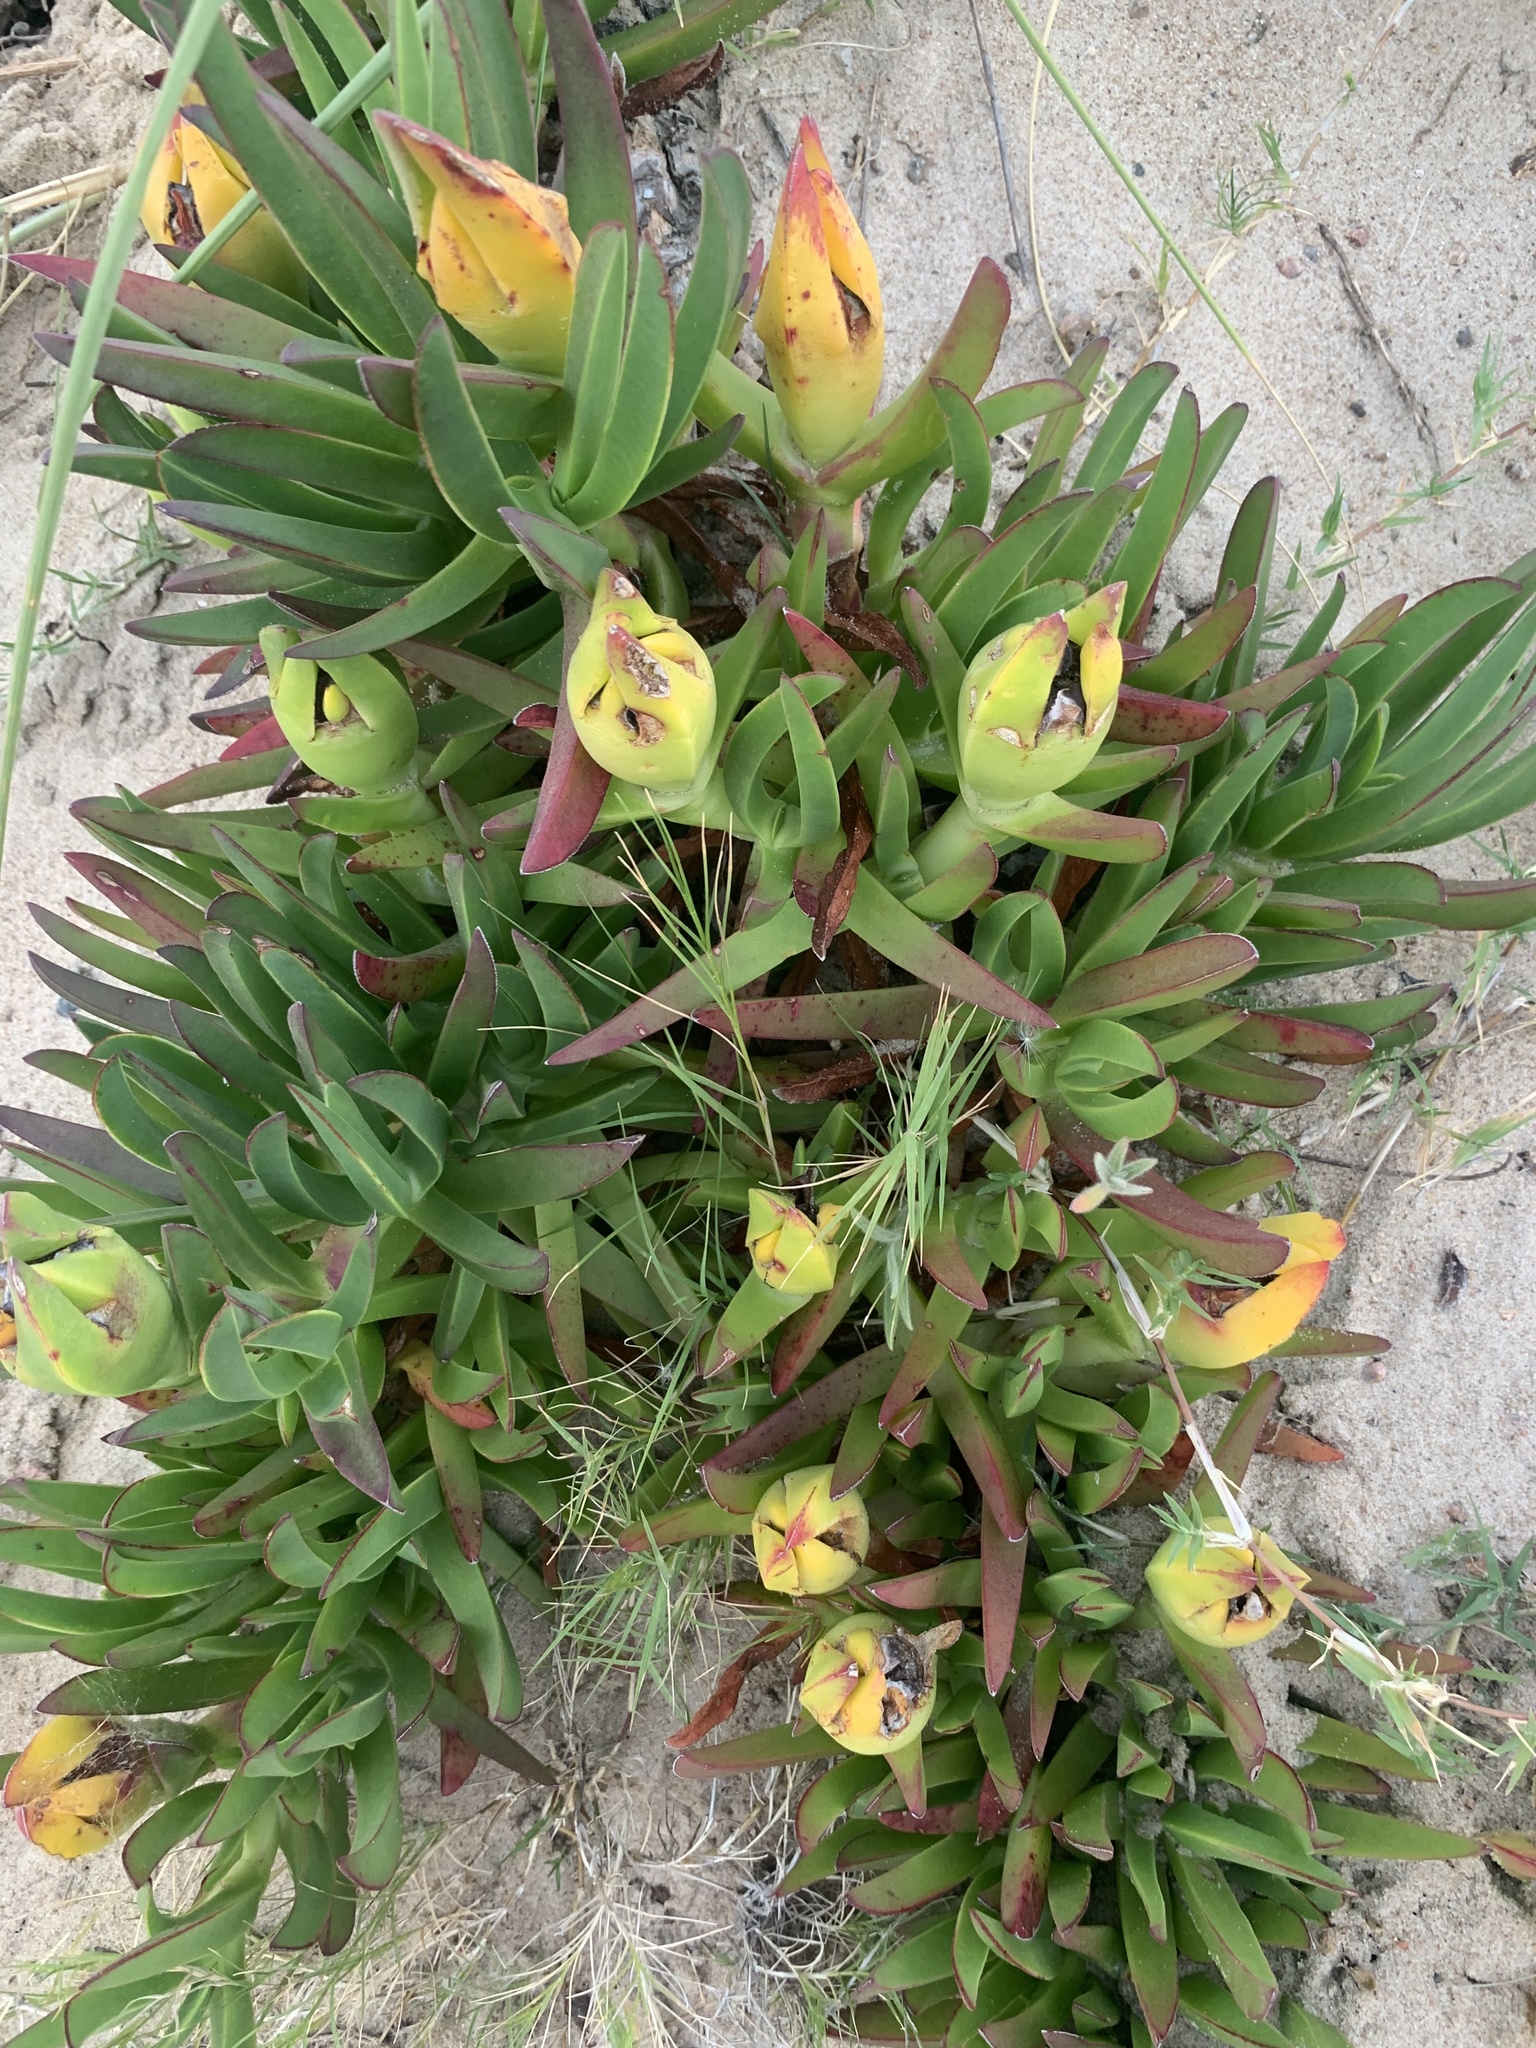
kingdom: Plantae
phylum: Tracheophyta
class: Magnoliopsida
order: Caryophyllales
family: Aizoaceae
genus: Carpobrotus
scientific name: Carpobrotus edulis
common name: Hottentot-fig
